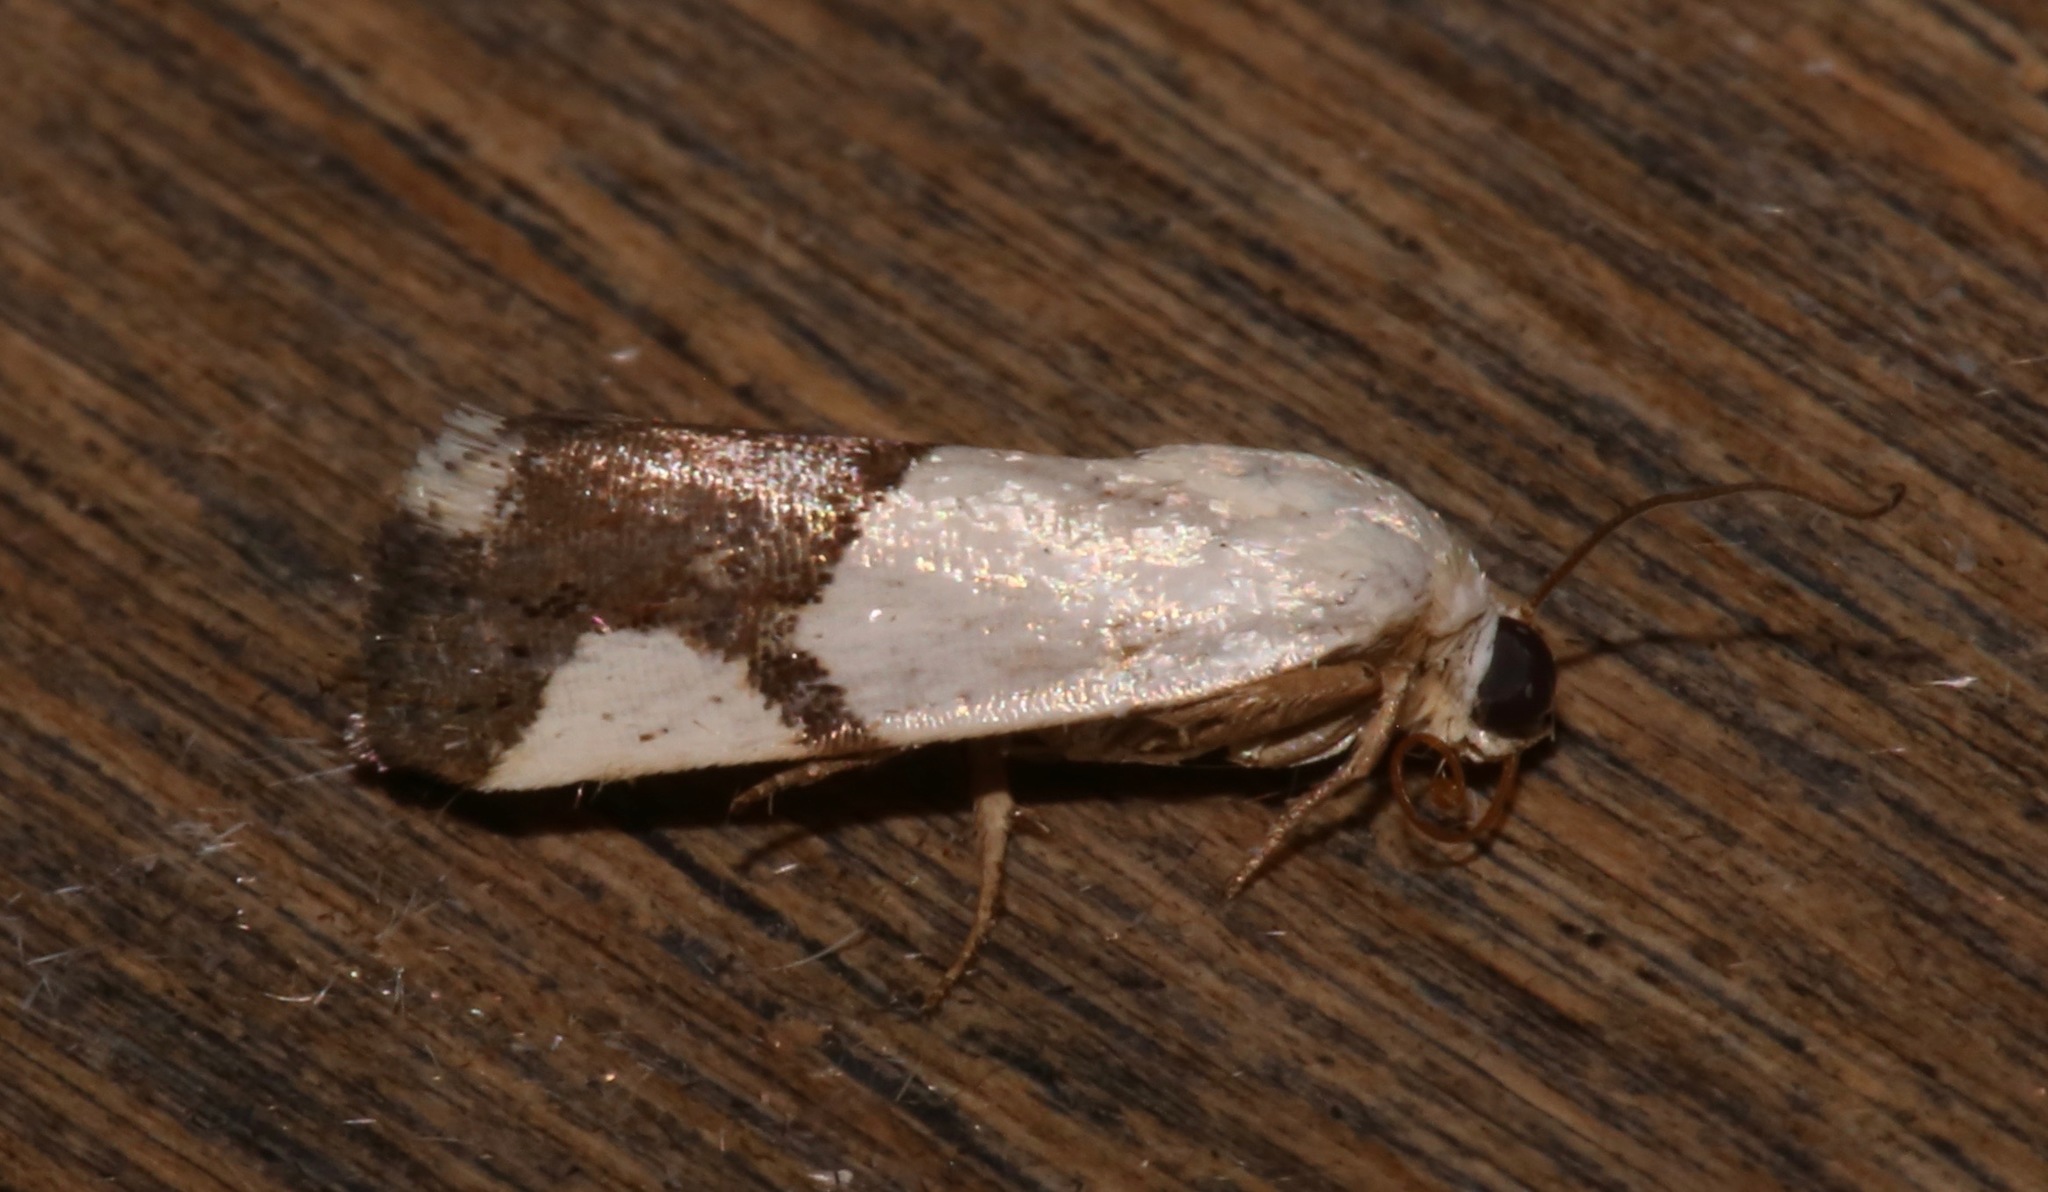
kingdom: Animalia
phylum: Arthropoda
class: Insecta
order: Lepidoptera
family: Noctuidae
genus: Acontia
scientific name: Acontia cuta
